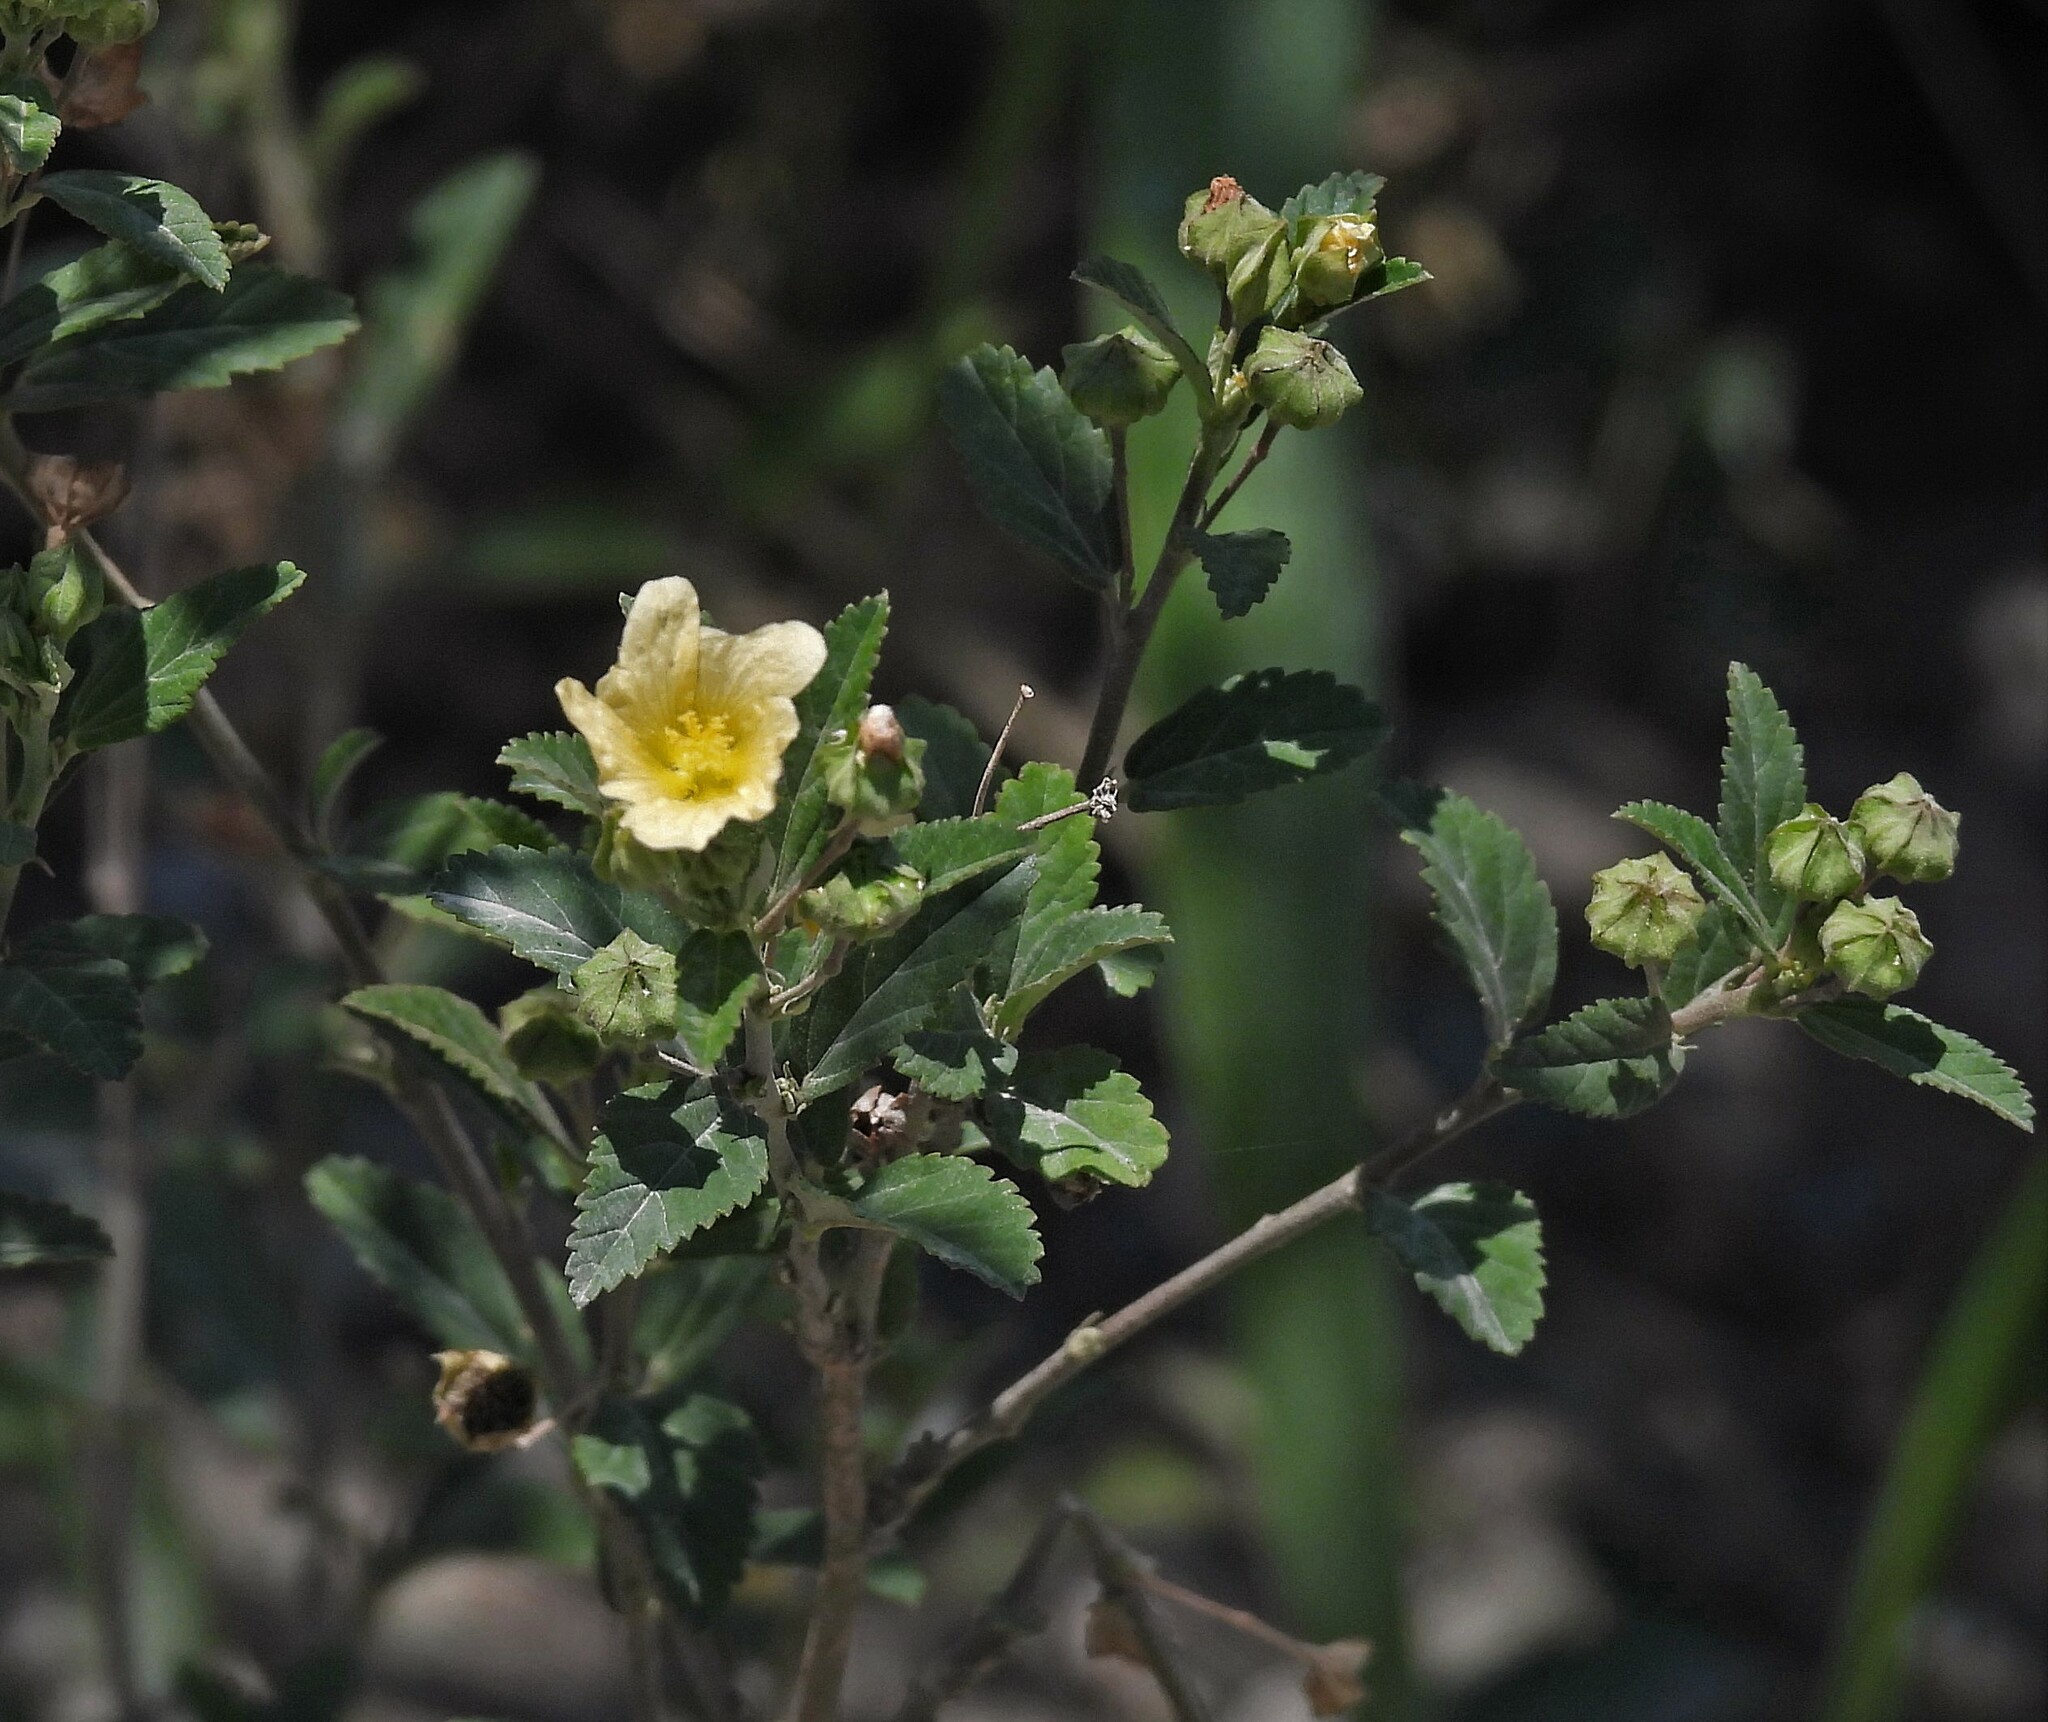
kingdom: Plantae
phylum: Tracheophyta
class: Magnoliopsida
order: Malvales
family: Malvaceae
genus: Sida
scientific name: Sida rhombifolia
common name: Queensland-hemp
